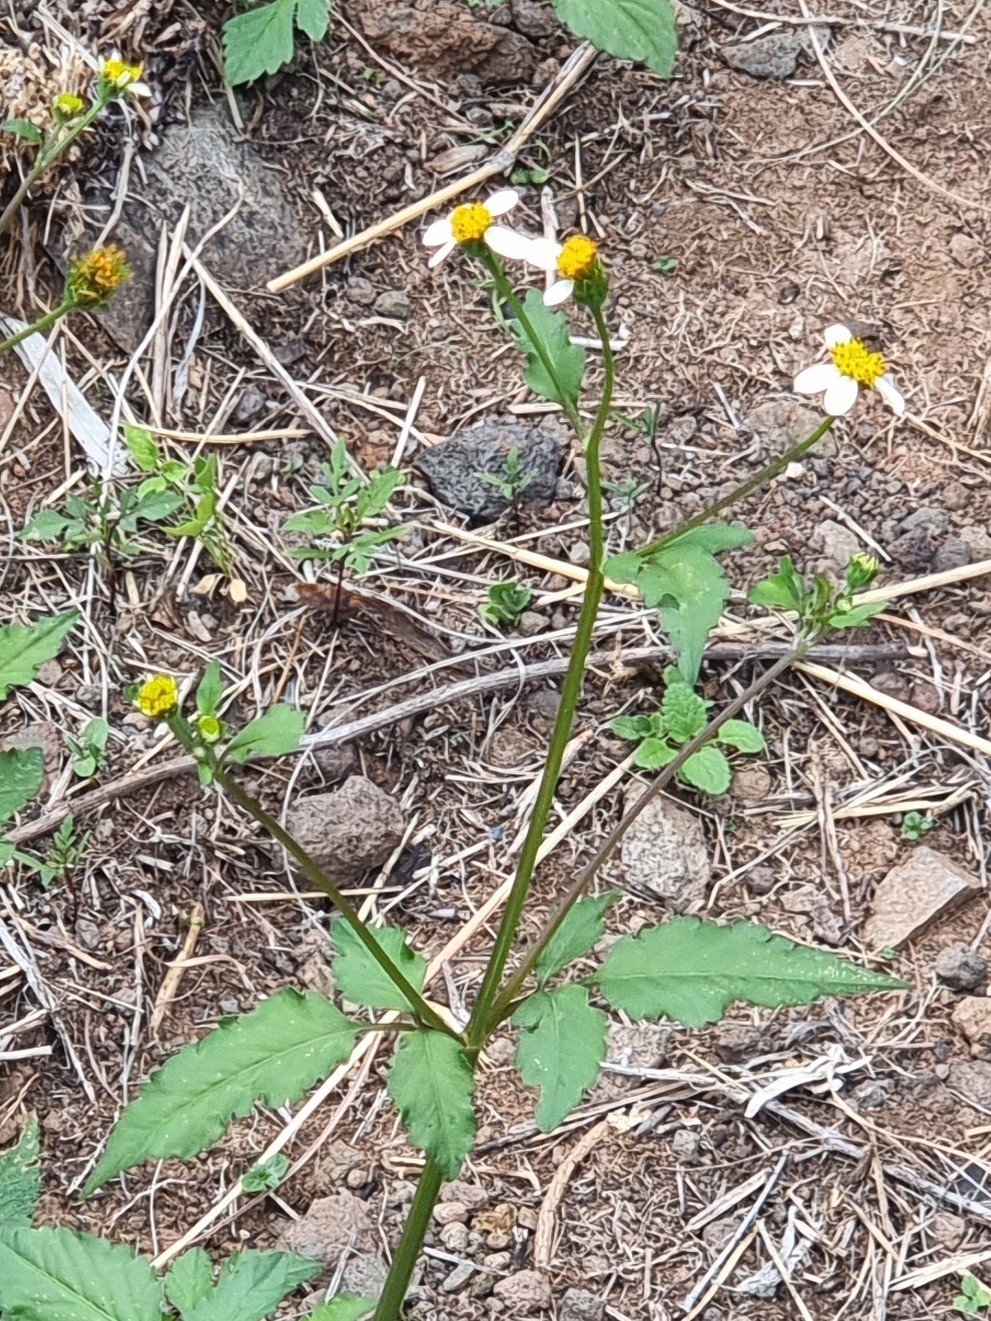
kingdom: Plantae
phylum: Tracheophyta
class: Magnoliopsida
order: Asterales
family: Asteraceae
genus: Bidens
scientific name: Bidens pilosa
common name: Black-jack
